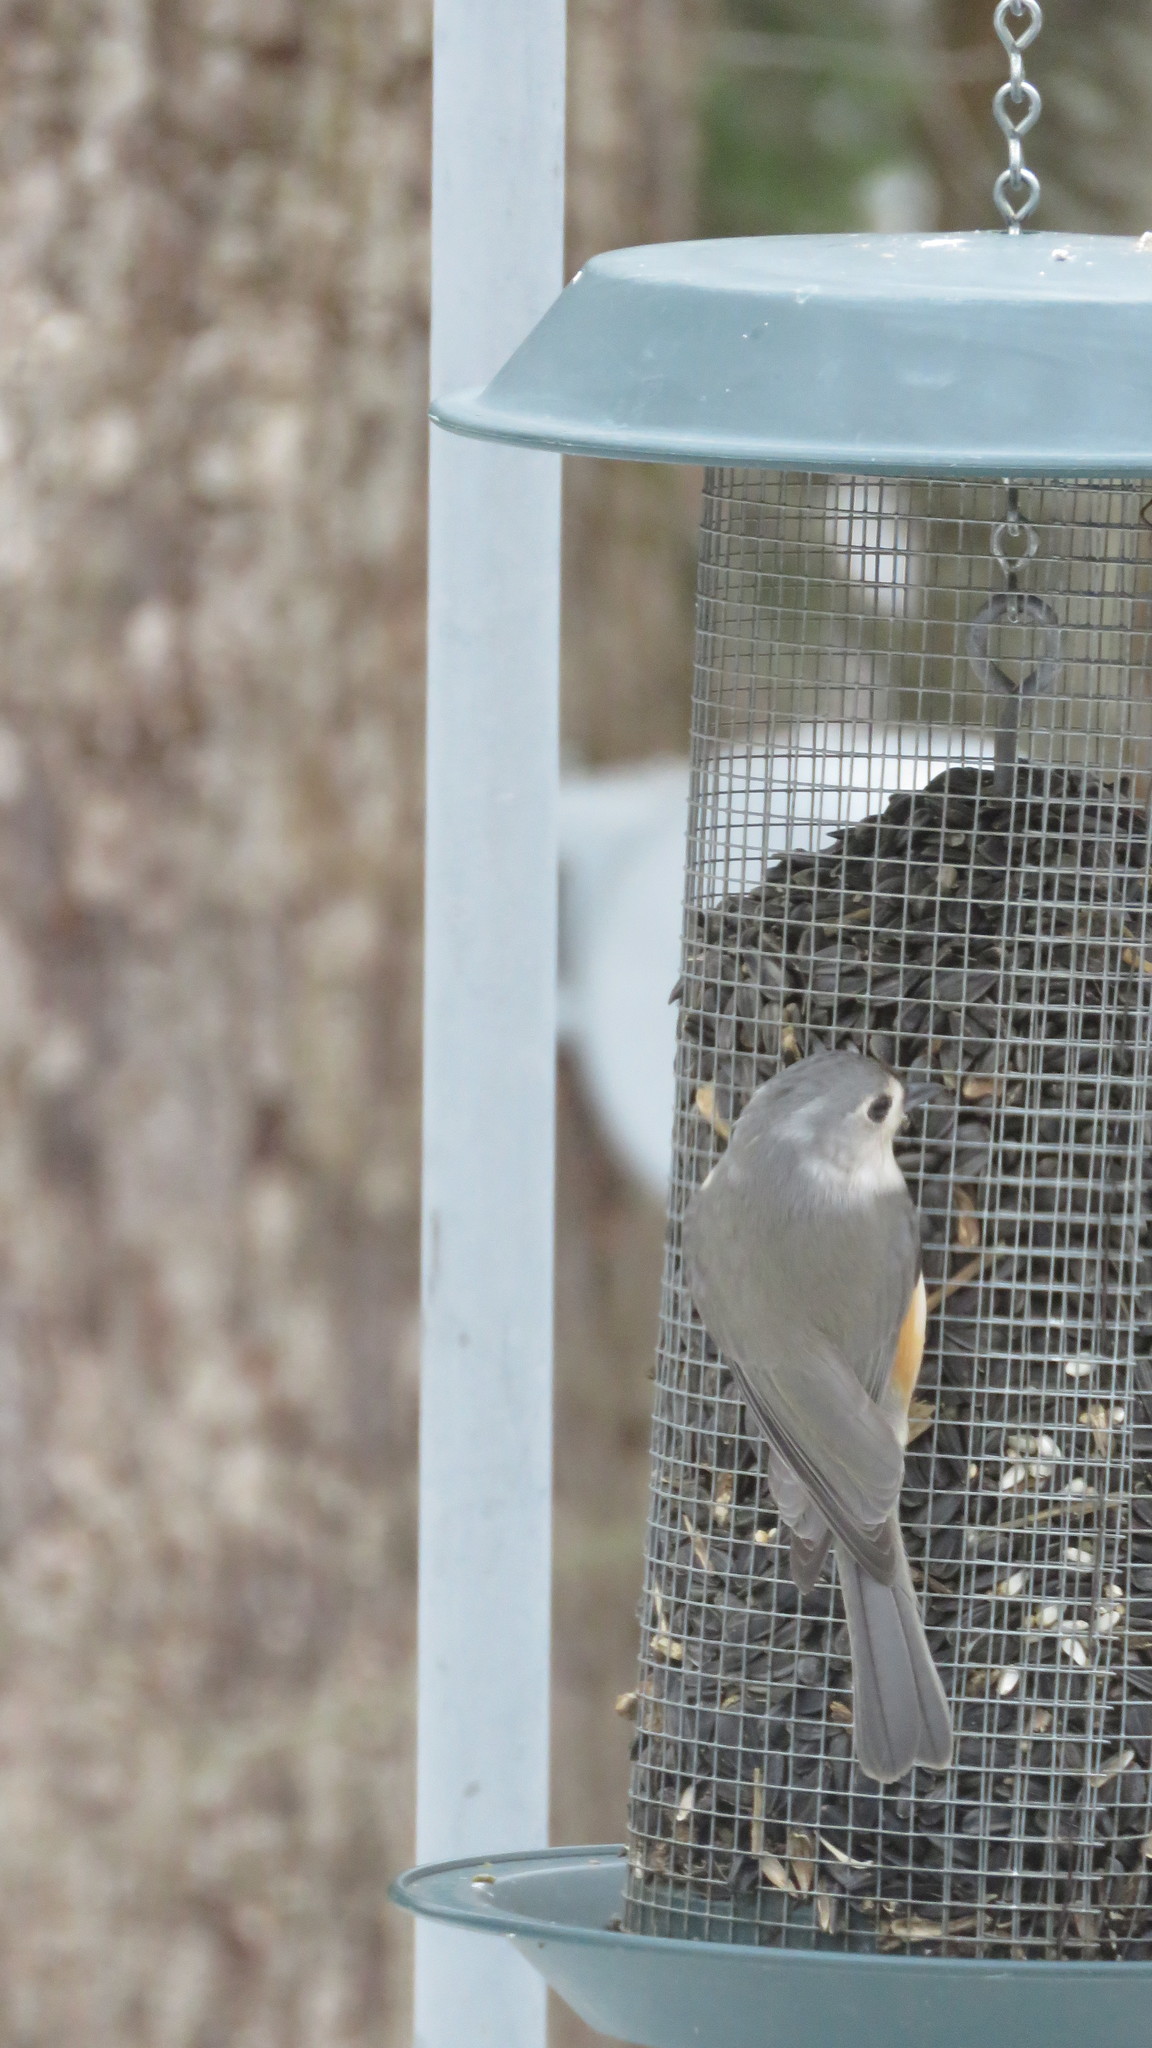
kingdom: Animalia
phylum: Chordata
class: Aves
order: Passeriformes
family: Paridae
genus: Baeolophus
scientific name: Baeolophus bicolor
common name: Tufted titmouse
